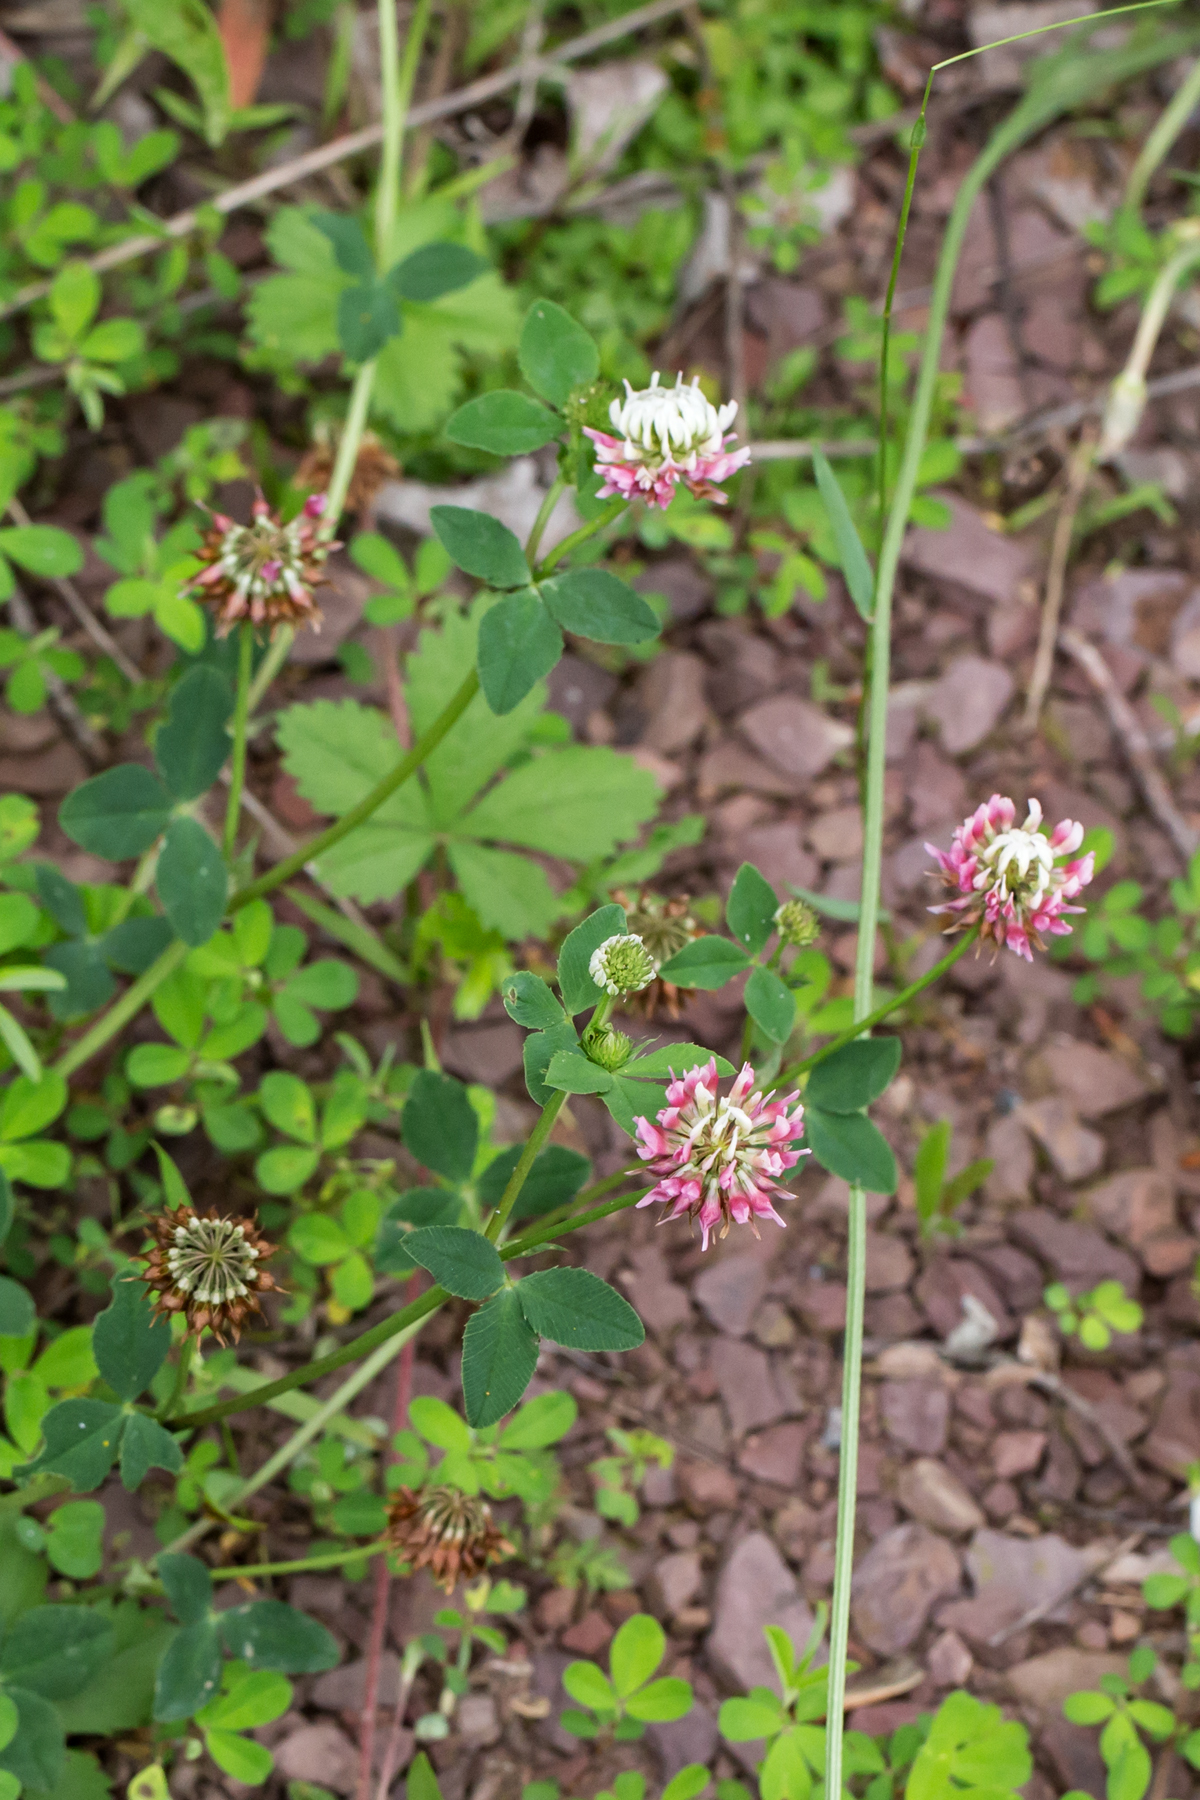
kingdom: Plantae
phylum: Tracheophyta
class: Magnoliopsida
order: Fabales
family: Fabaceae
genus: Trifolium
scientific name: Trifolium hybridum
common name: Alsike clover
